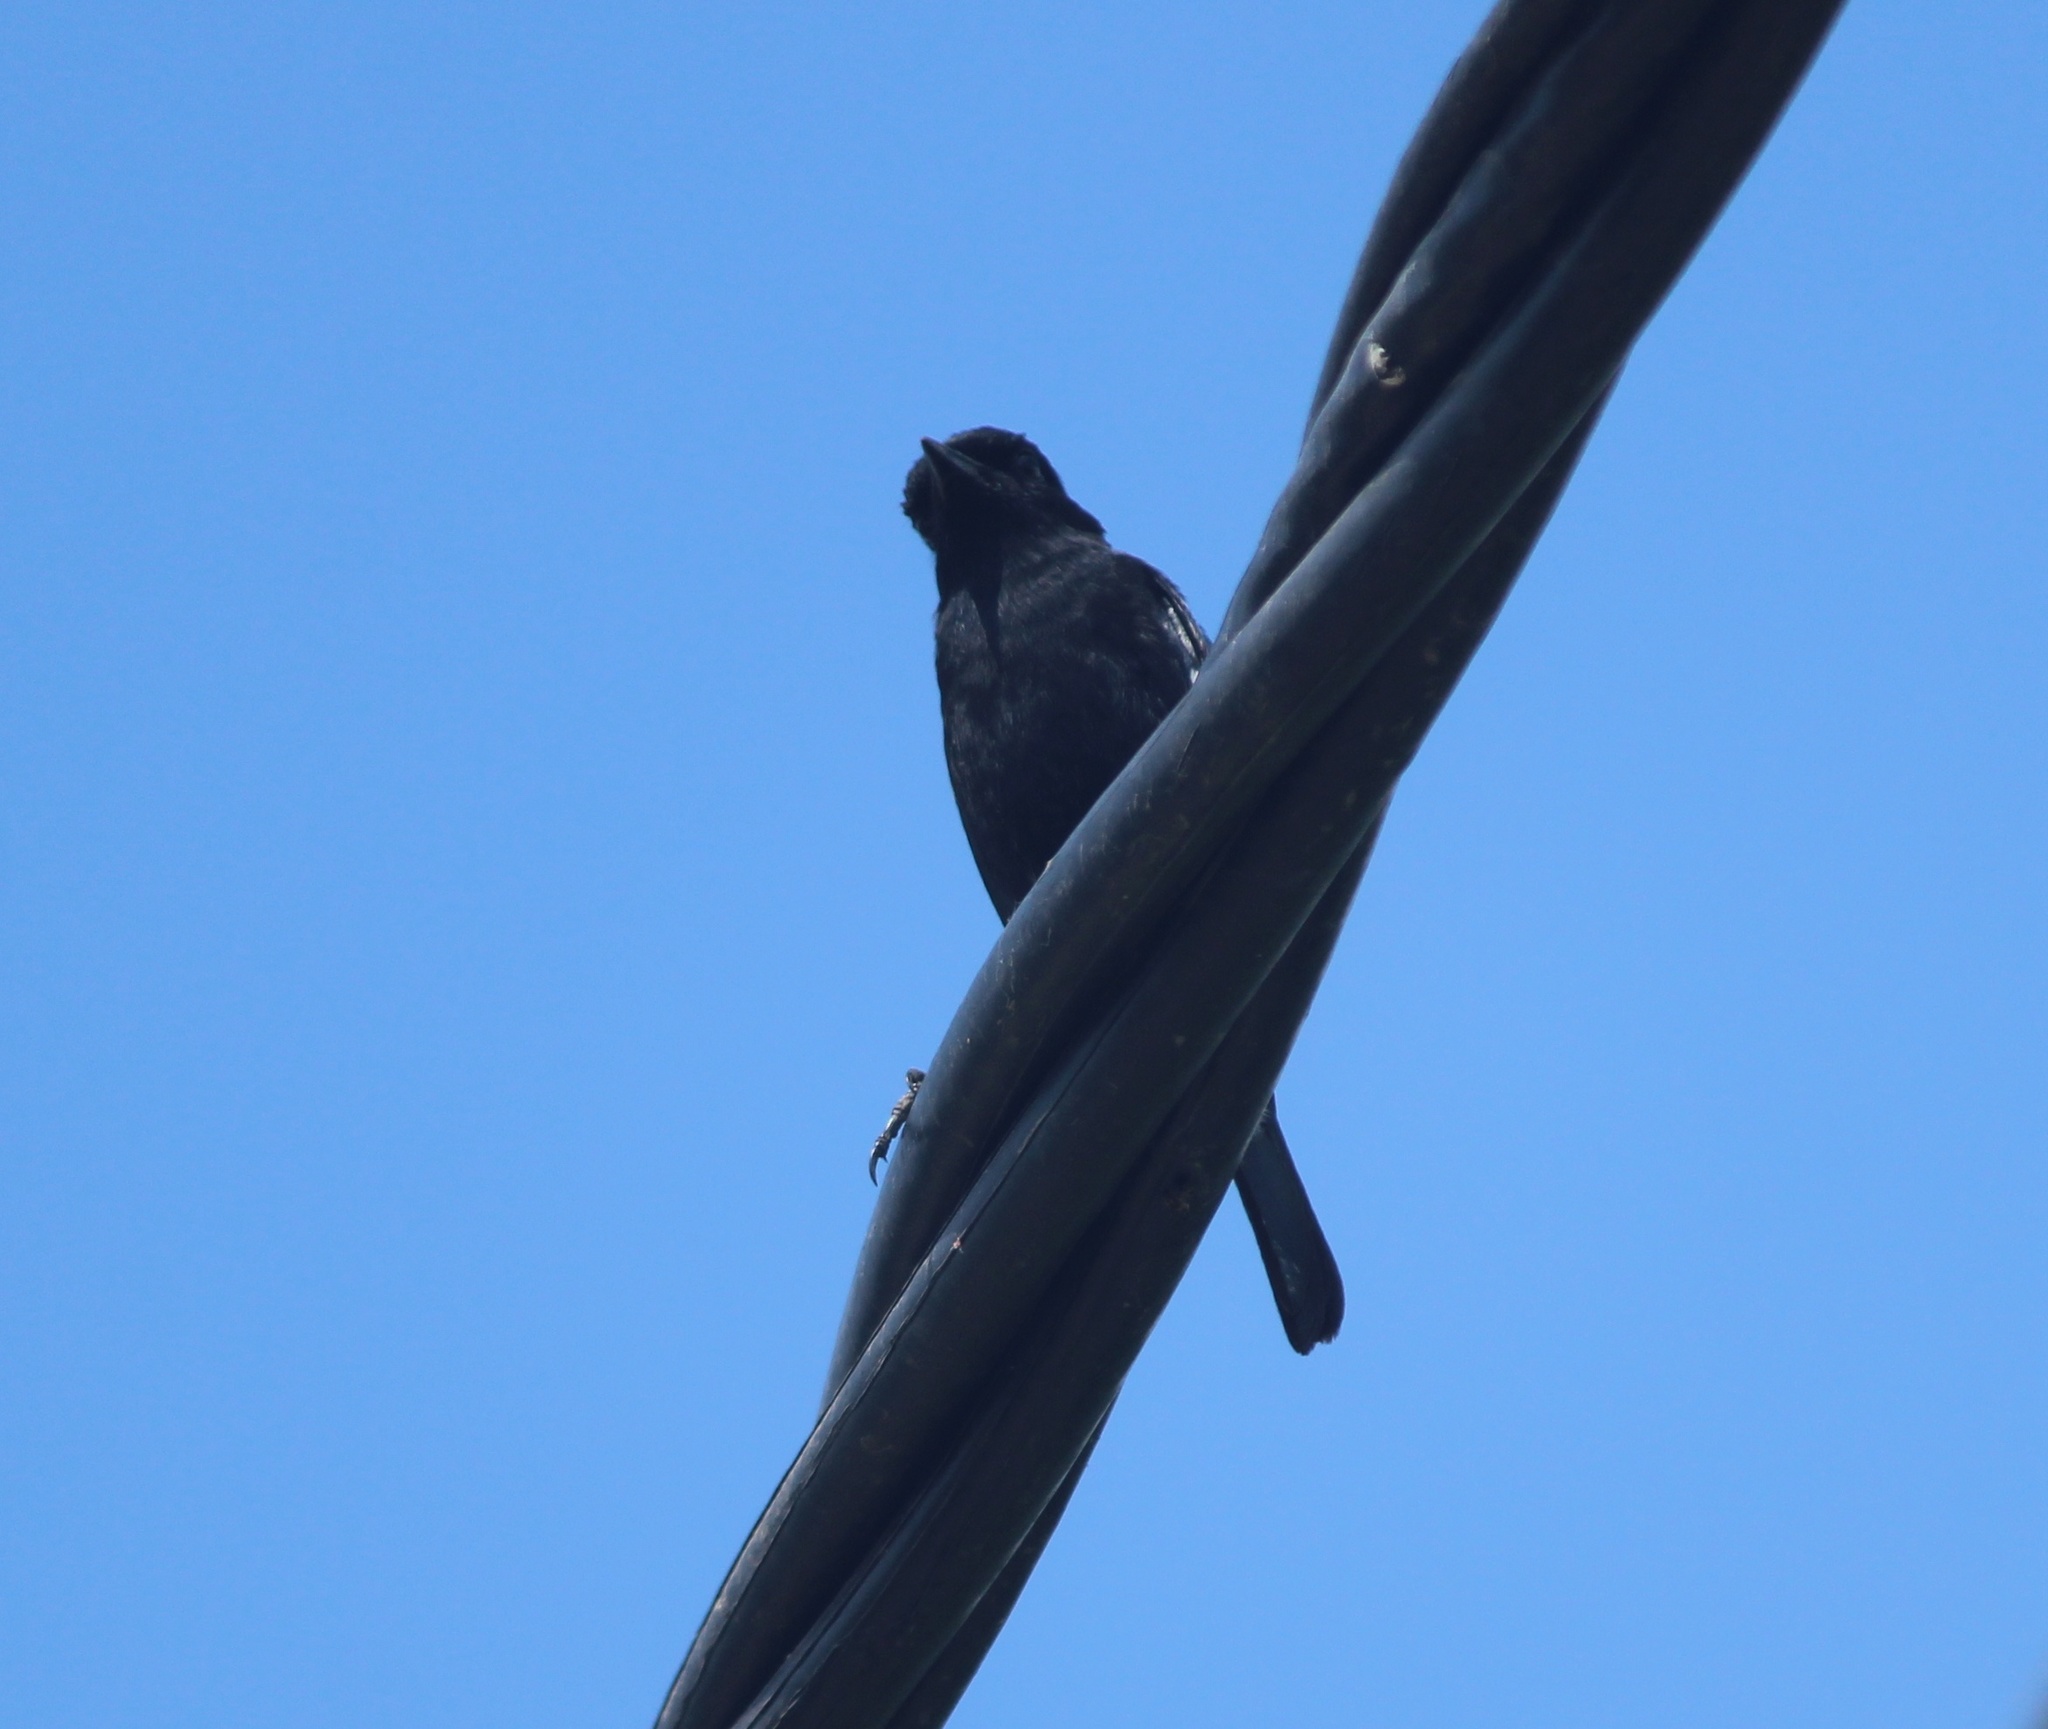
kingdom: Animalia
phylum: Chordata
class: Aves
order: Passeriformes
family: Muscicapidae
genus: Saxicola
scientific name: Saxicola caprata
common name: Pied bush chat
